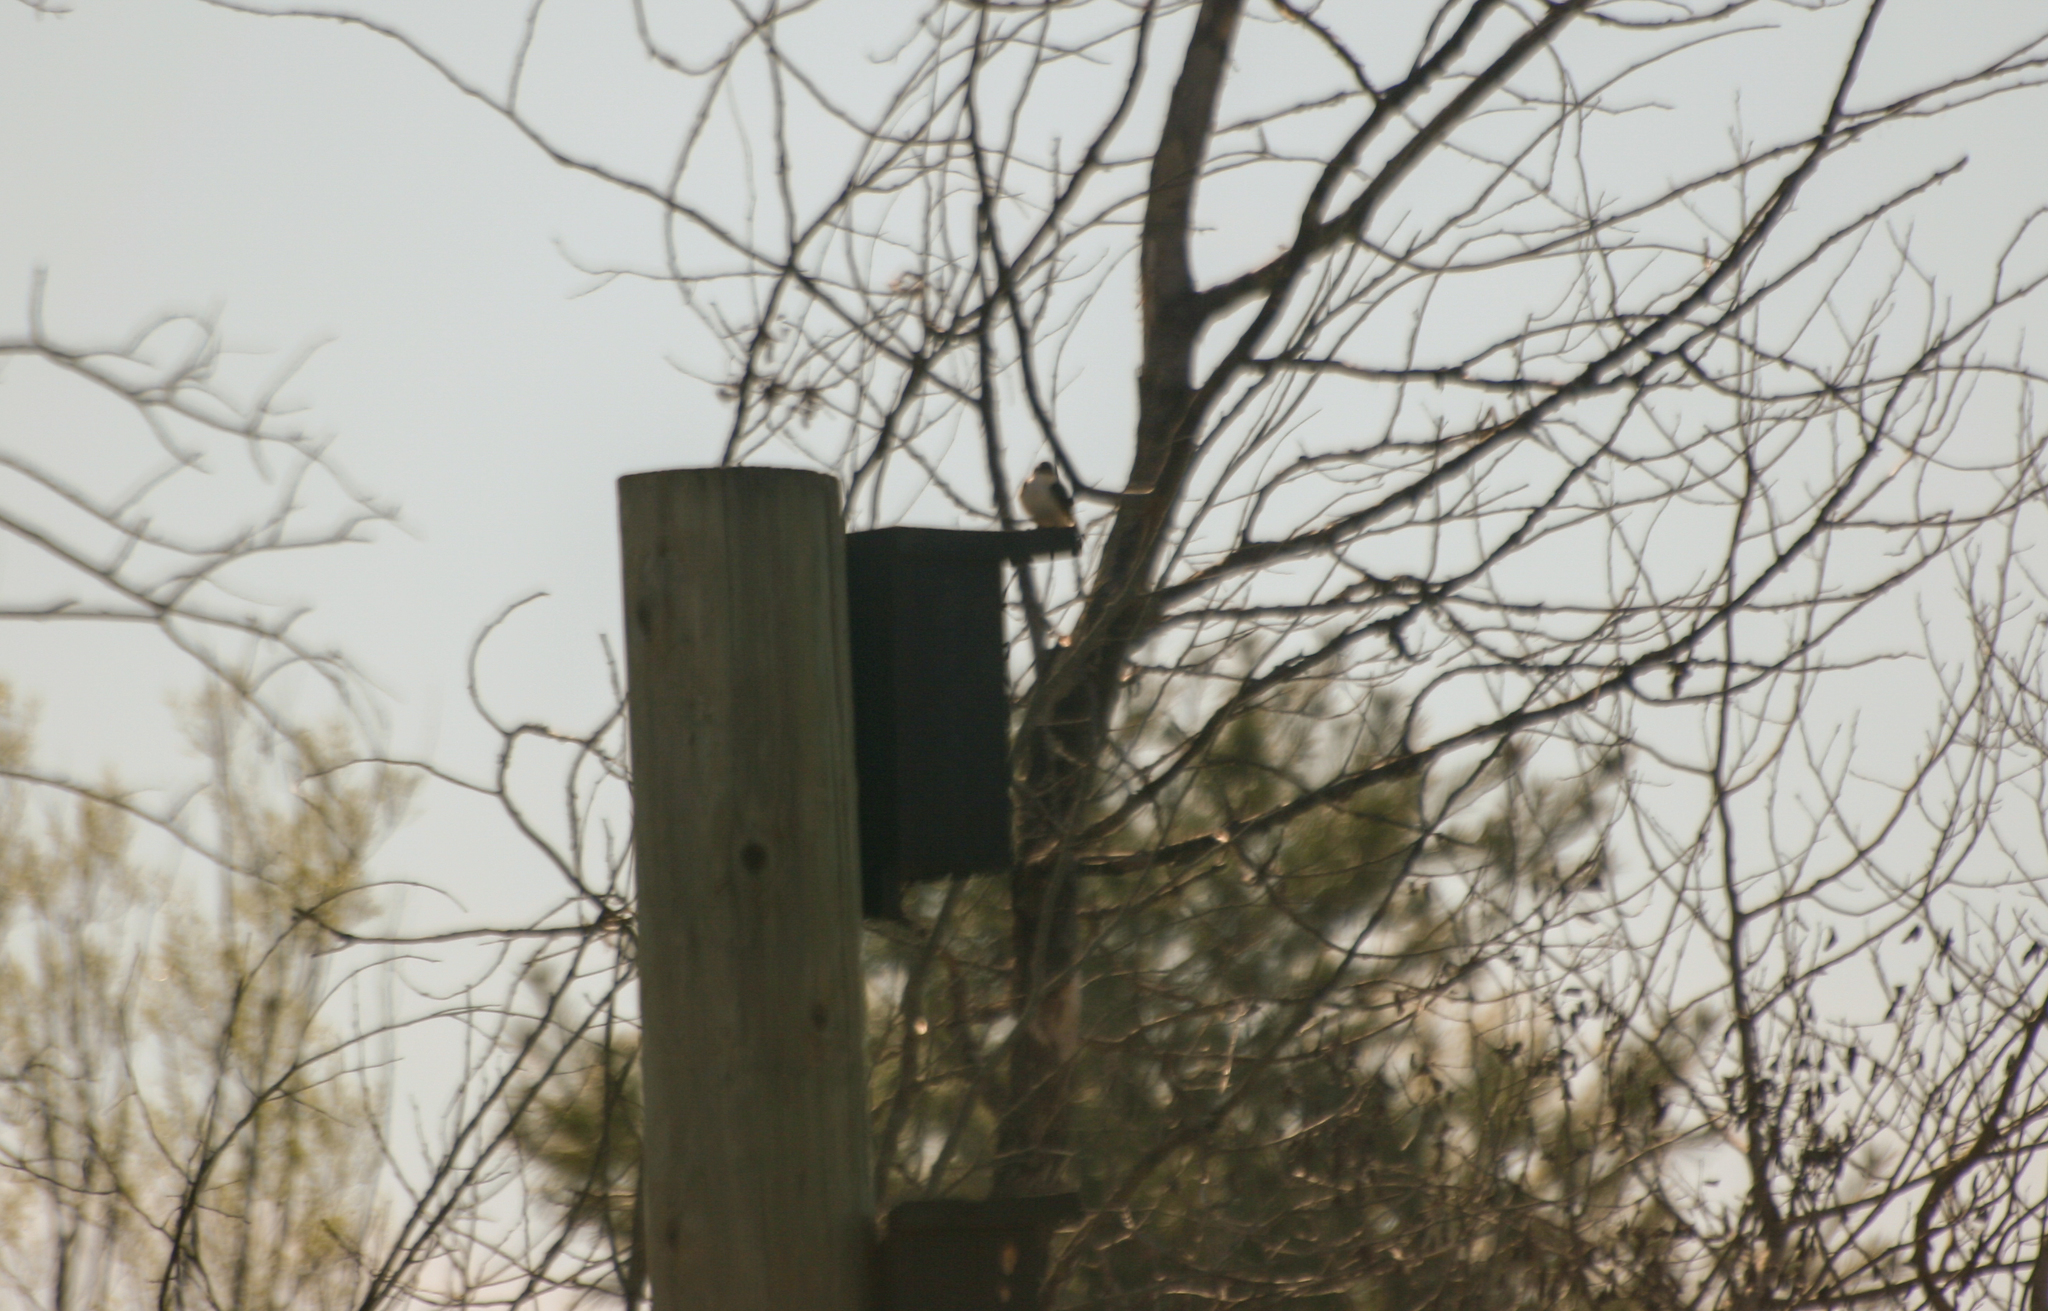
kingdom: Animalia
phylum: Chordata
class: Aves
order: Passeriformes
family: Hirundinidae
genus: Tachycineta
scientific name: Tachycineta bicolor
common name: Tree swallow
